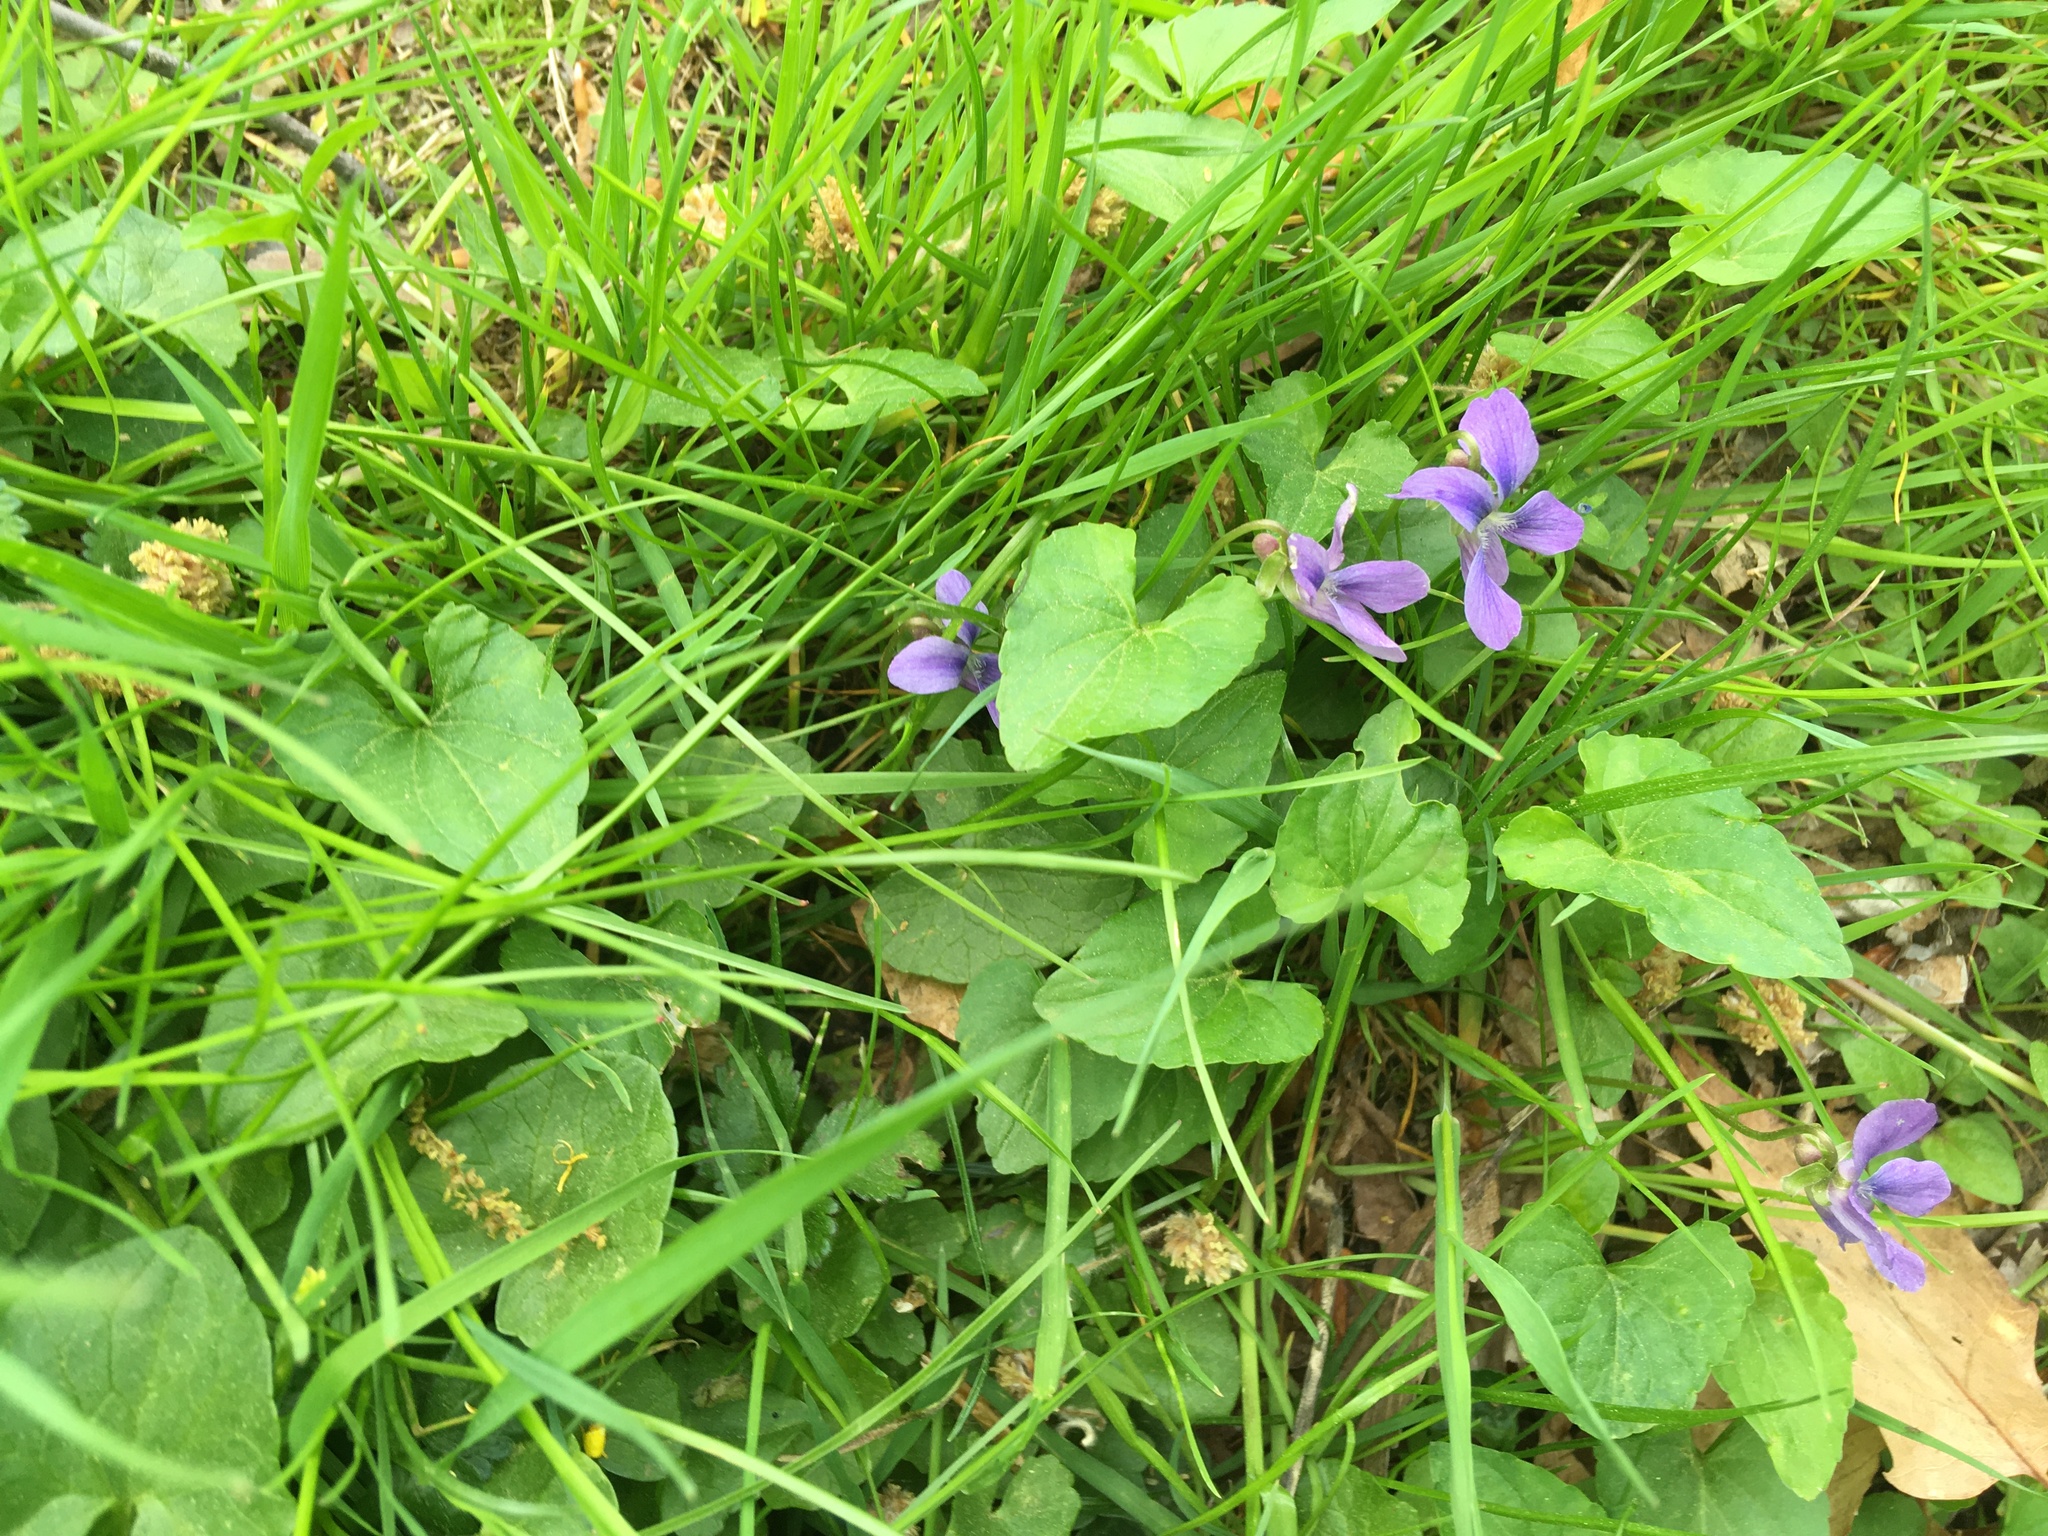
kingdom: Plantae
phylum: Tracheophyta
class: Magnoliopsida
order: Malpighiales
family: Violaceae
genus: Viola
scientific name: Viola sororia
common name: Dooryard violet
